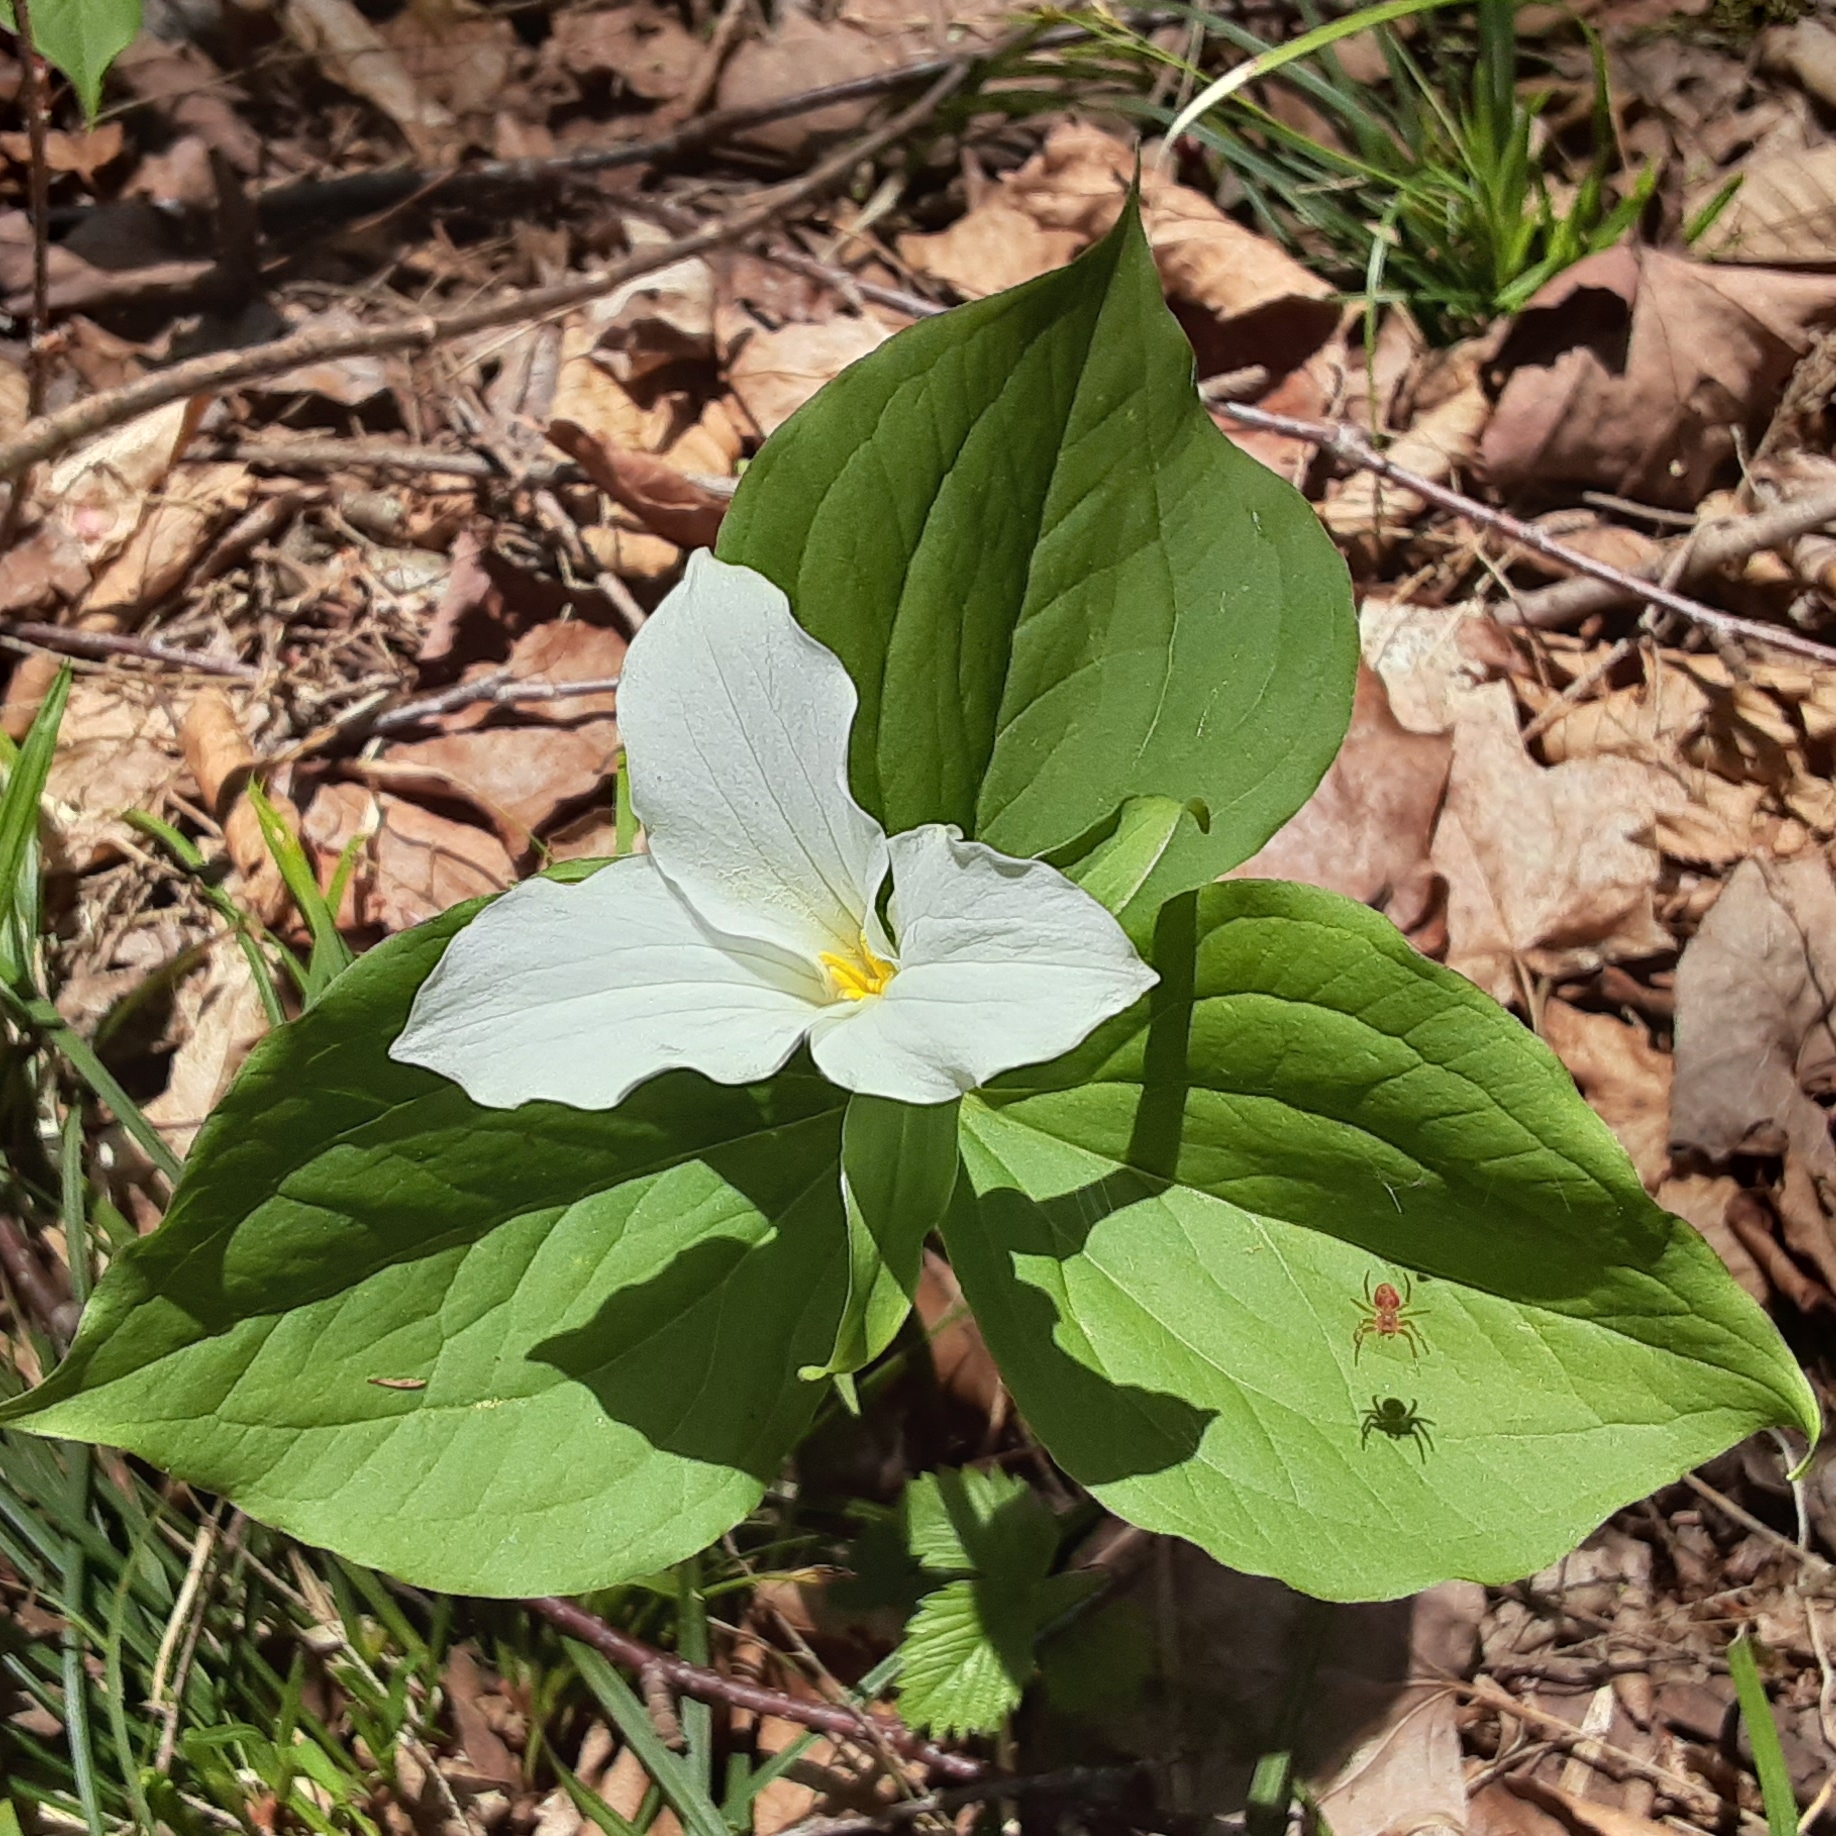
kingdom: Plantae
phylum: Tracheophyta
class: Liliopsida
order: Liliales
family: Melanthiaceae
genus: Trillium
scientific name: Trillium grandiflorum
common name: Great white trillium
